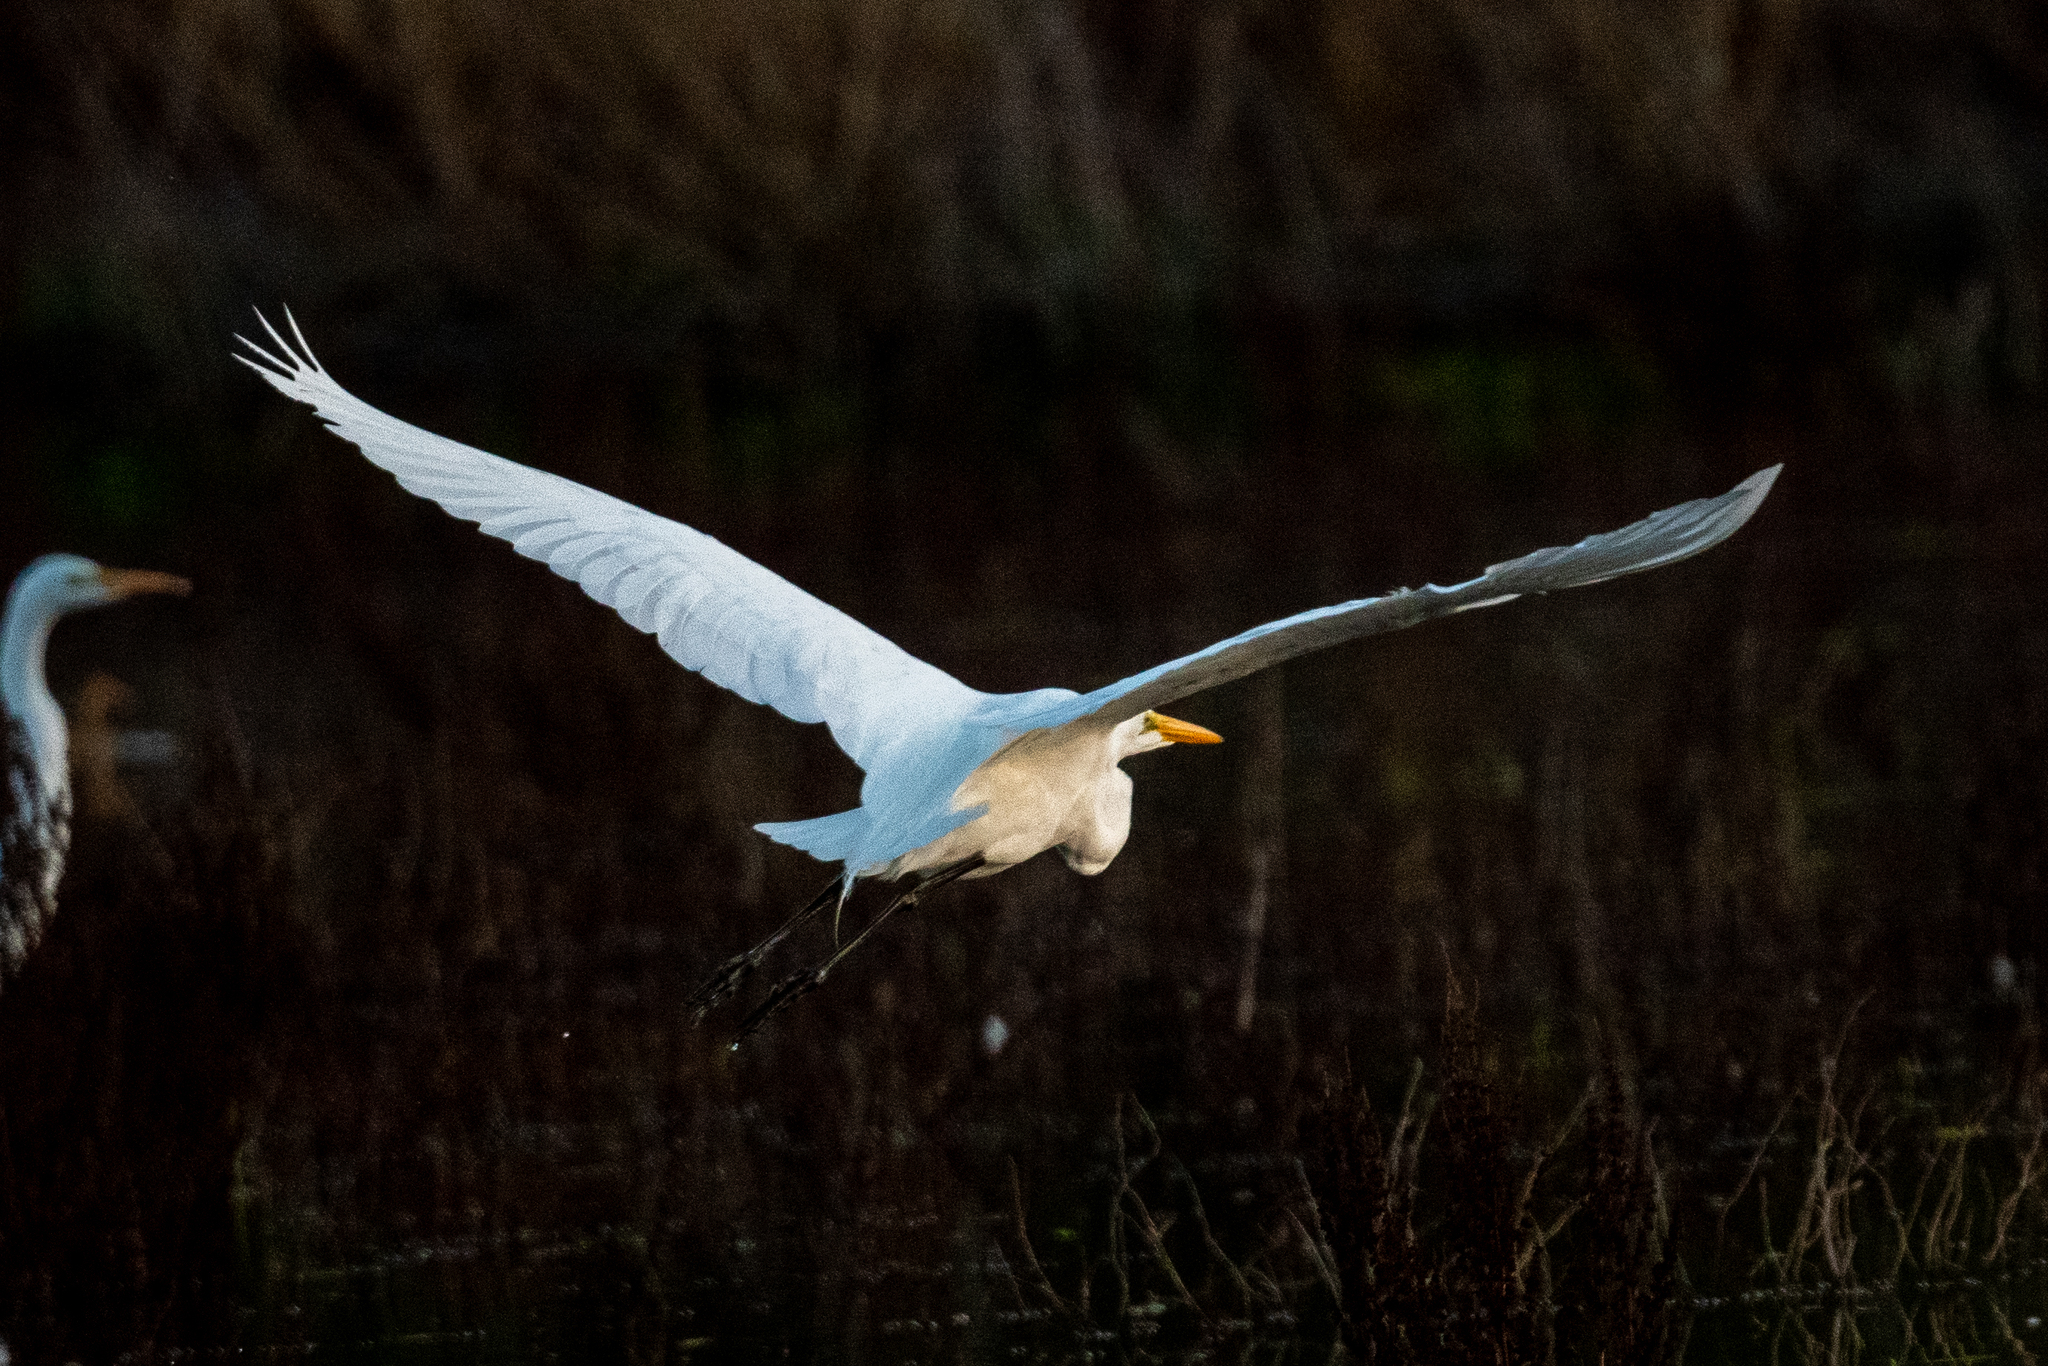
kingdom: Animalia
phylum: Chordata
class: Aves
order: Pelecaniformes
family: Ardeidae
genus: Ardea
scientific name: Ardea alba
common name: Great egret
